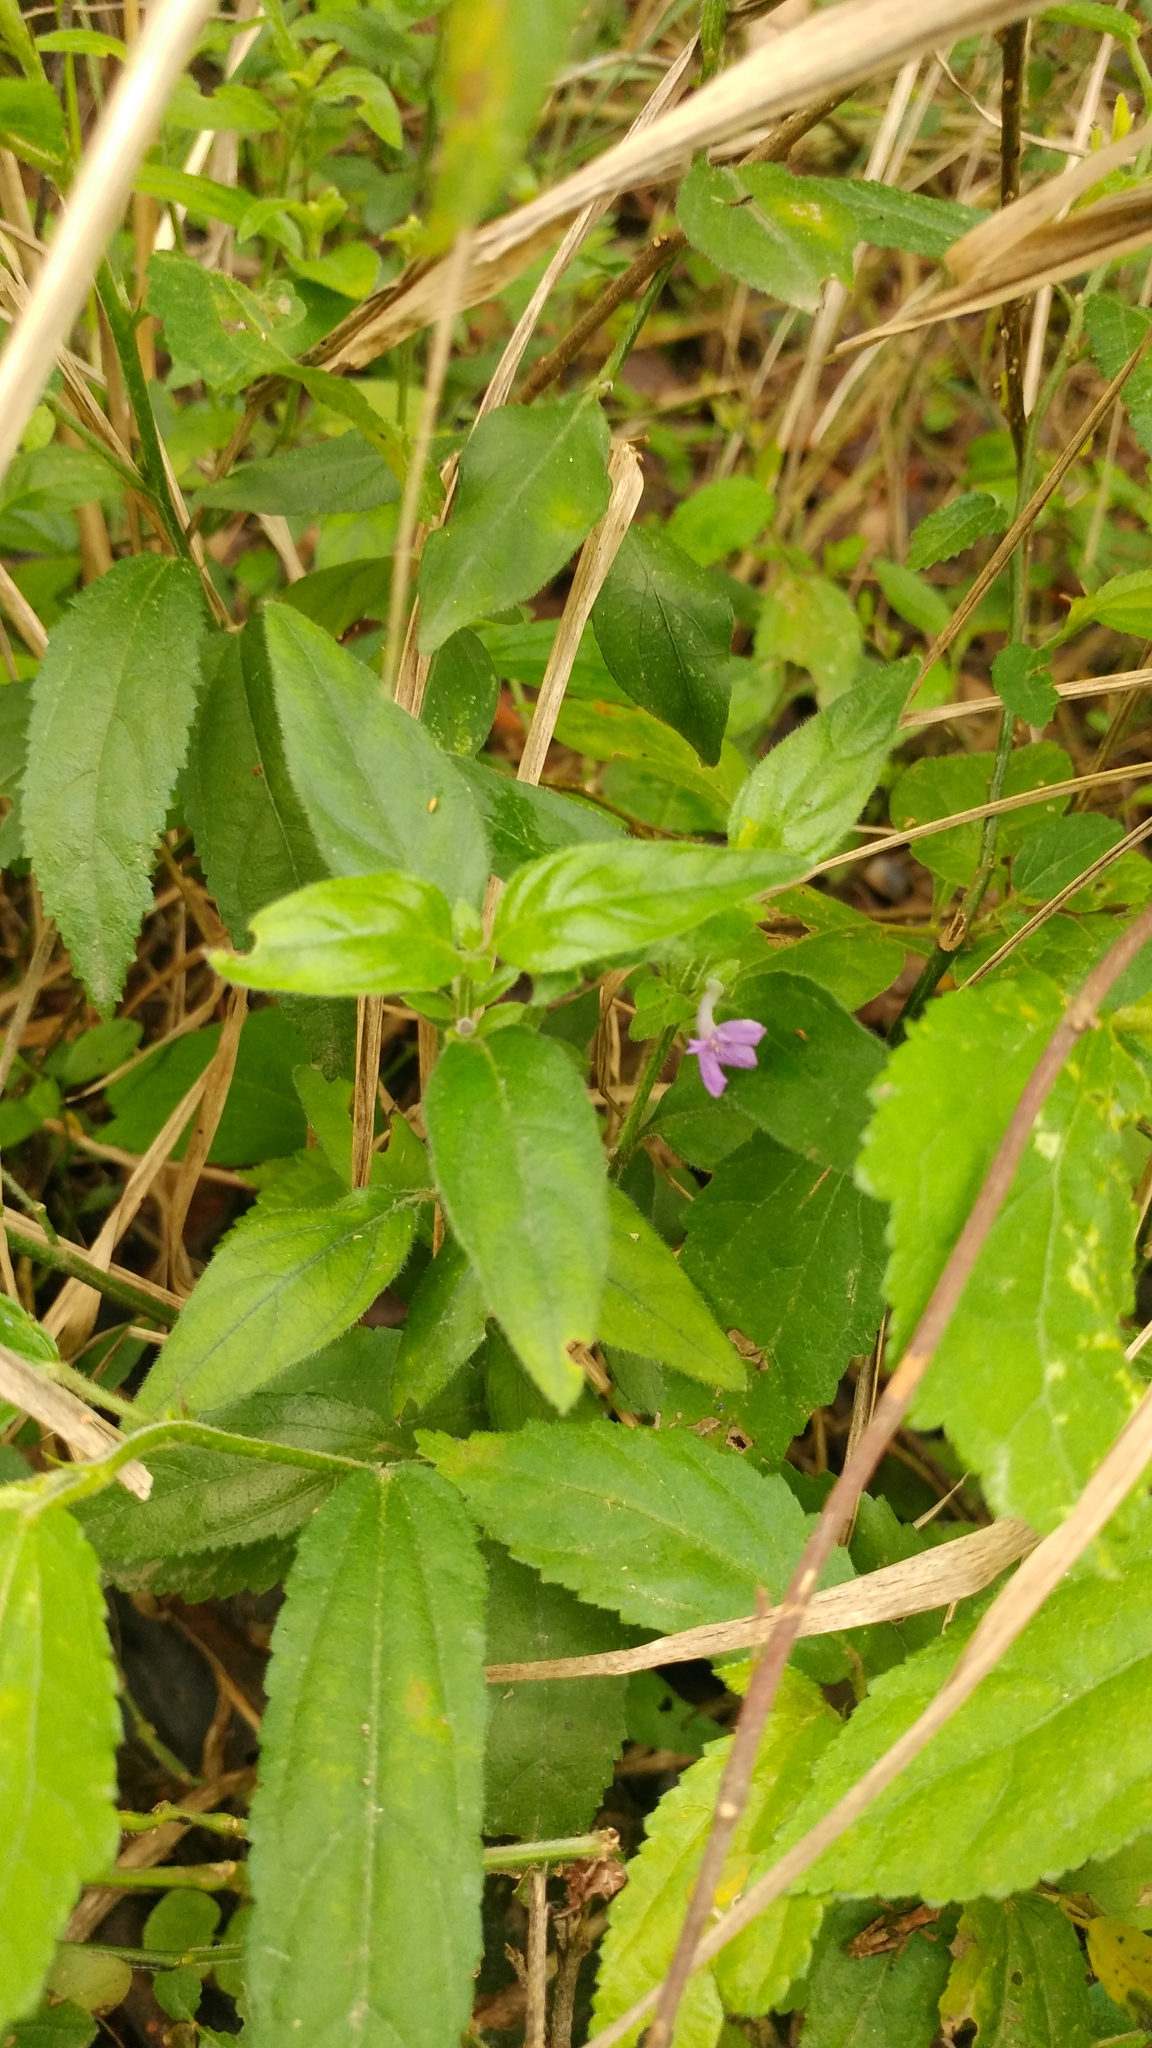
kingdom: Plantae
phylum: Tracheophyta
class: Magnoliopsida
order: Lamiales
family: Acanthaceae
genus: Justicia
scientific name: Justicia pilosella
